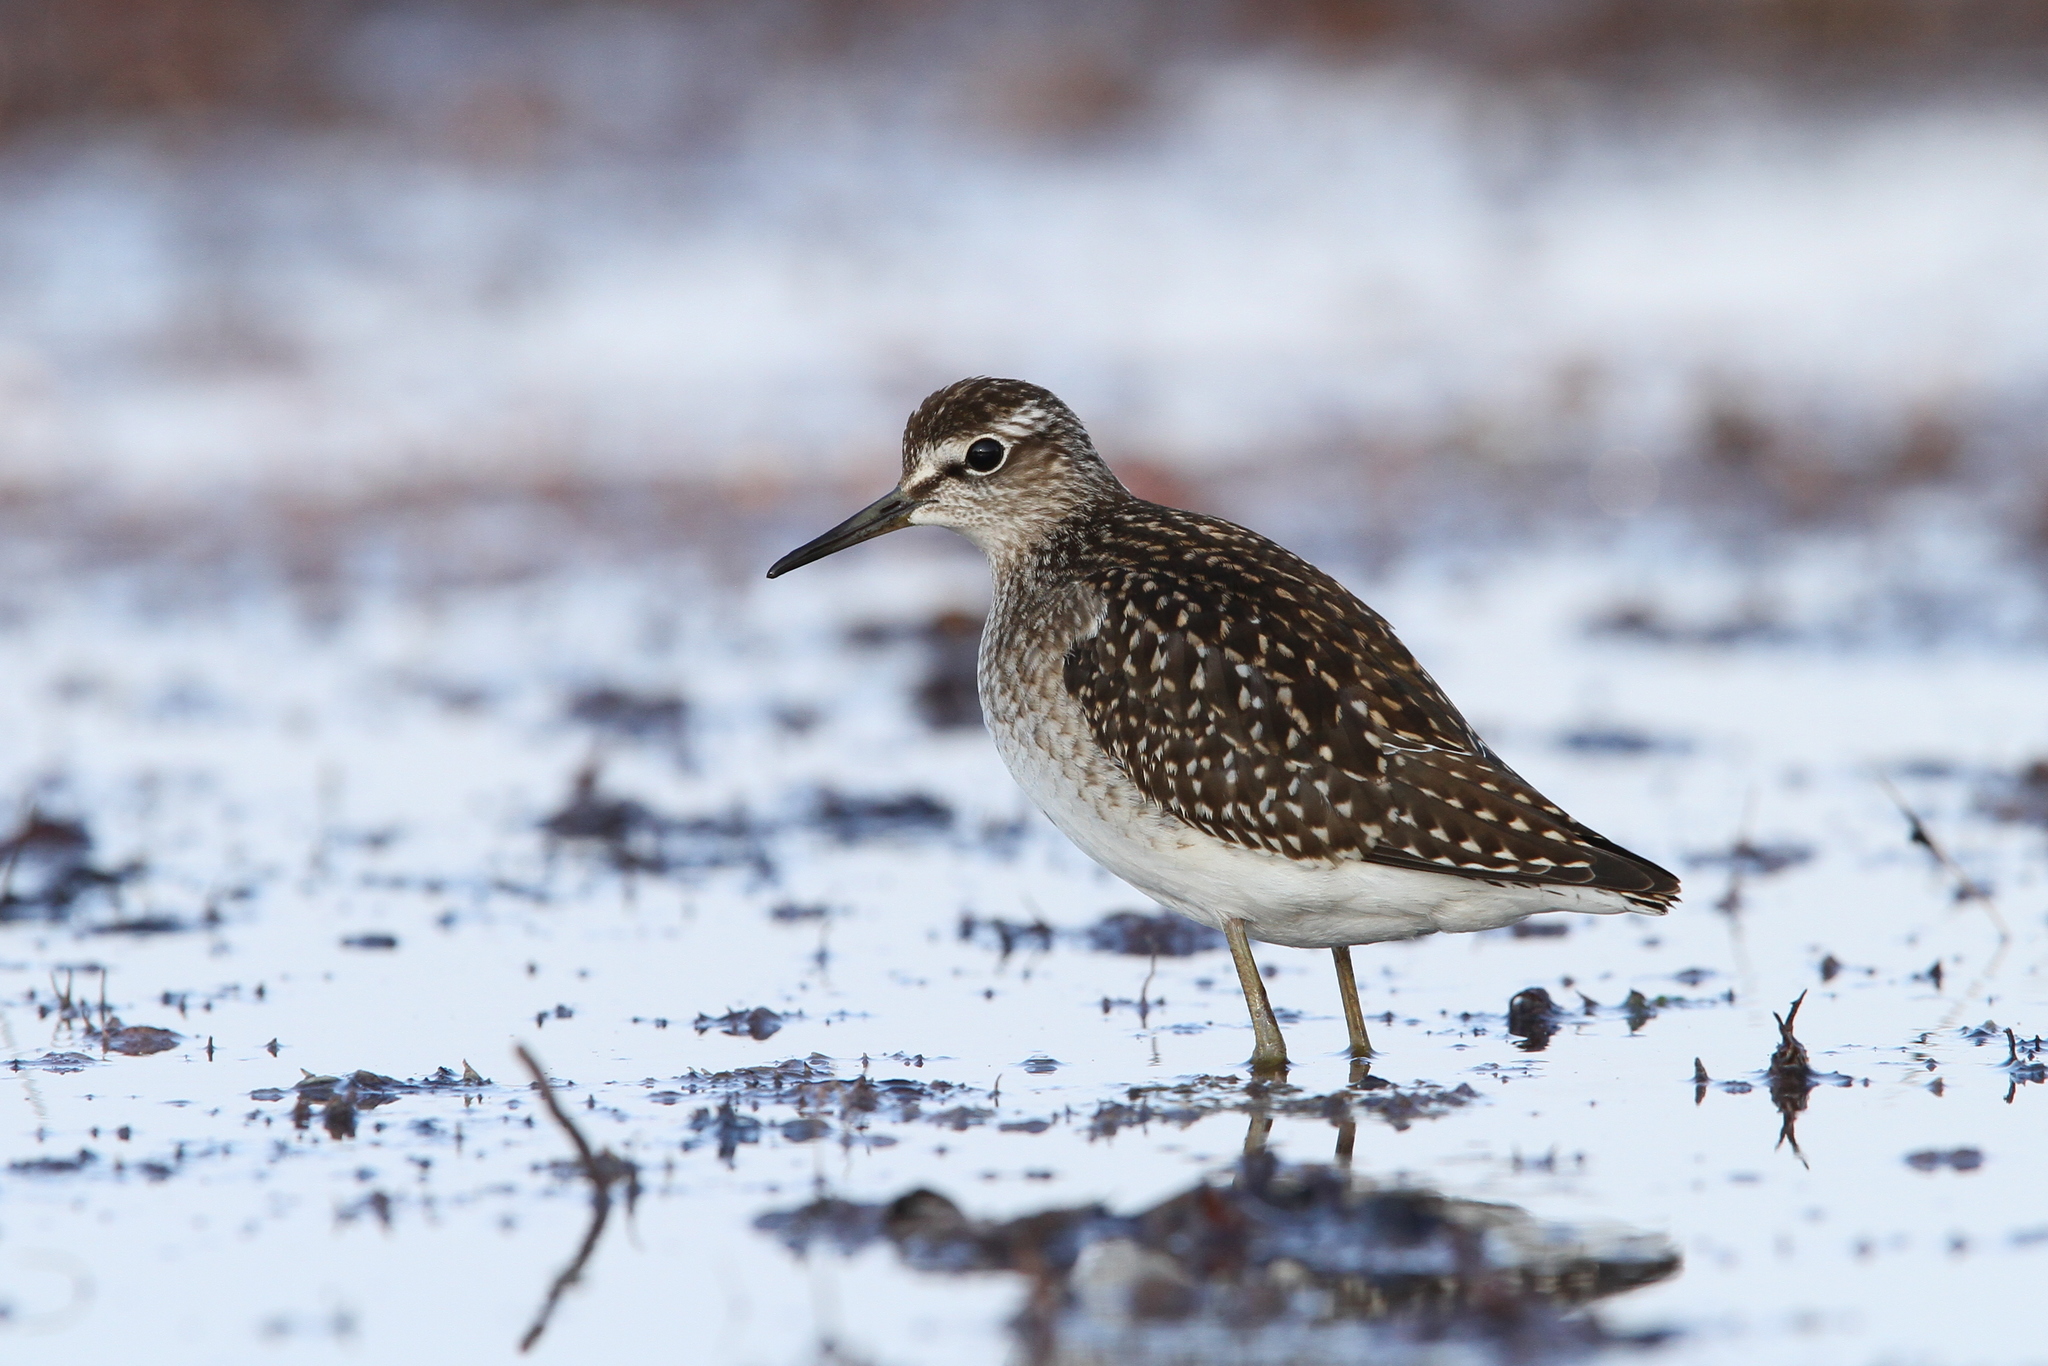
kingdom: Animalia
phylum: Chordata
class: Aves
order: Charadriiformes
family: Scolopacidae
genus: Tringa
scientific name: Tringa glareola
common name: Wood sandpiper
